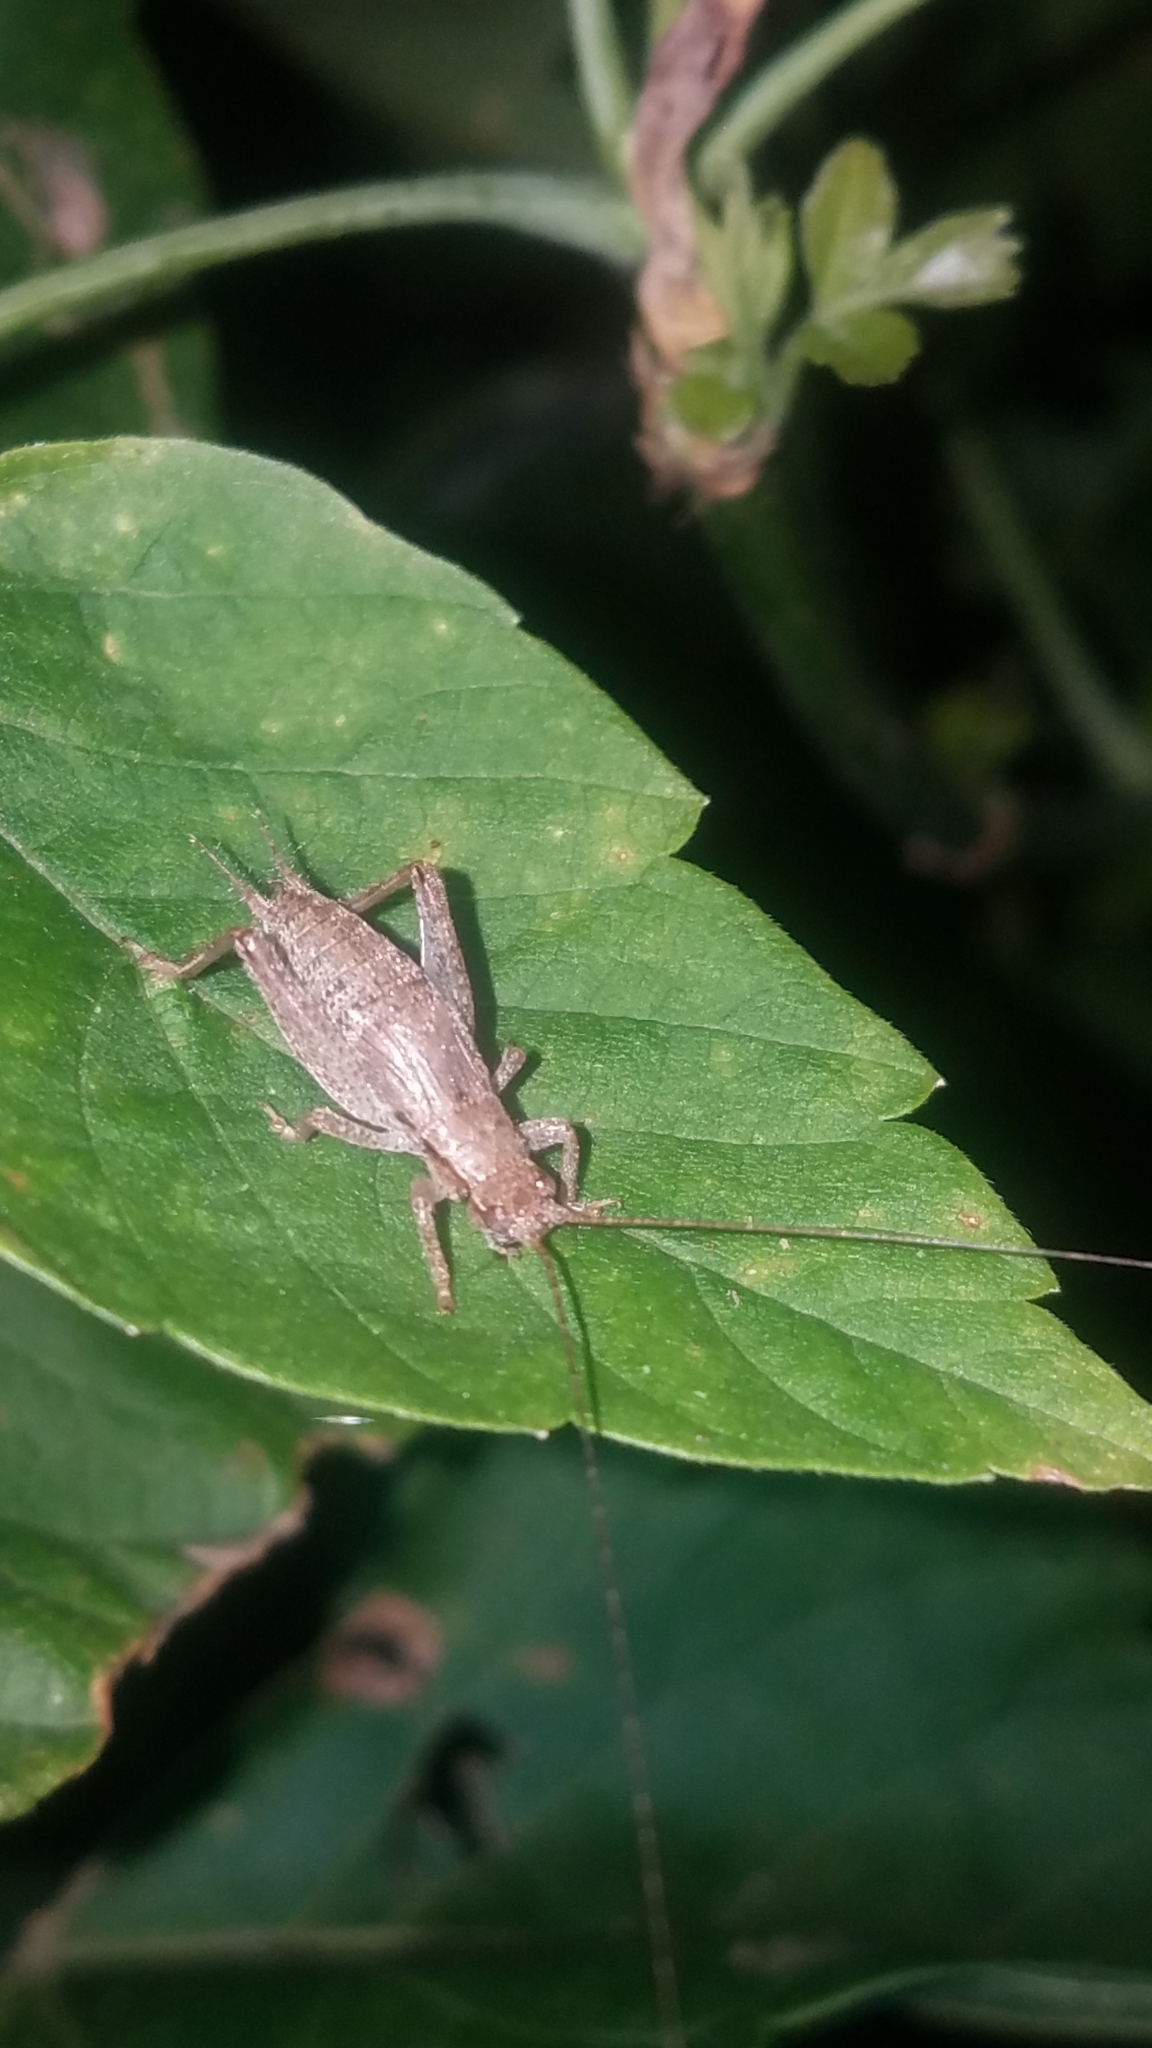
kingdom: Animalia
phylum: Arthropoda
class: Insecta
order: Orthoptera
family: Gryllidae
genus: Hapithus
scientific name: Hapithus saltator
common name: Jumping bush cricket
